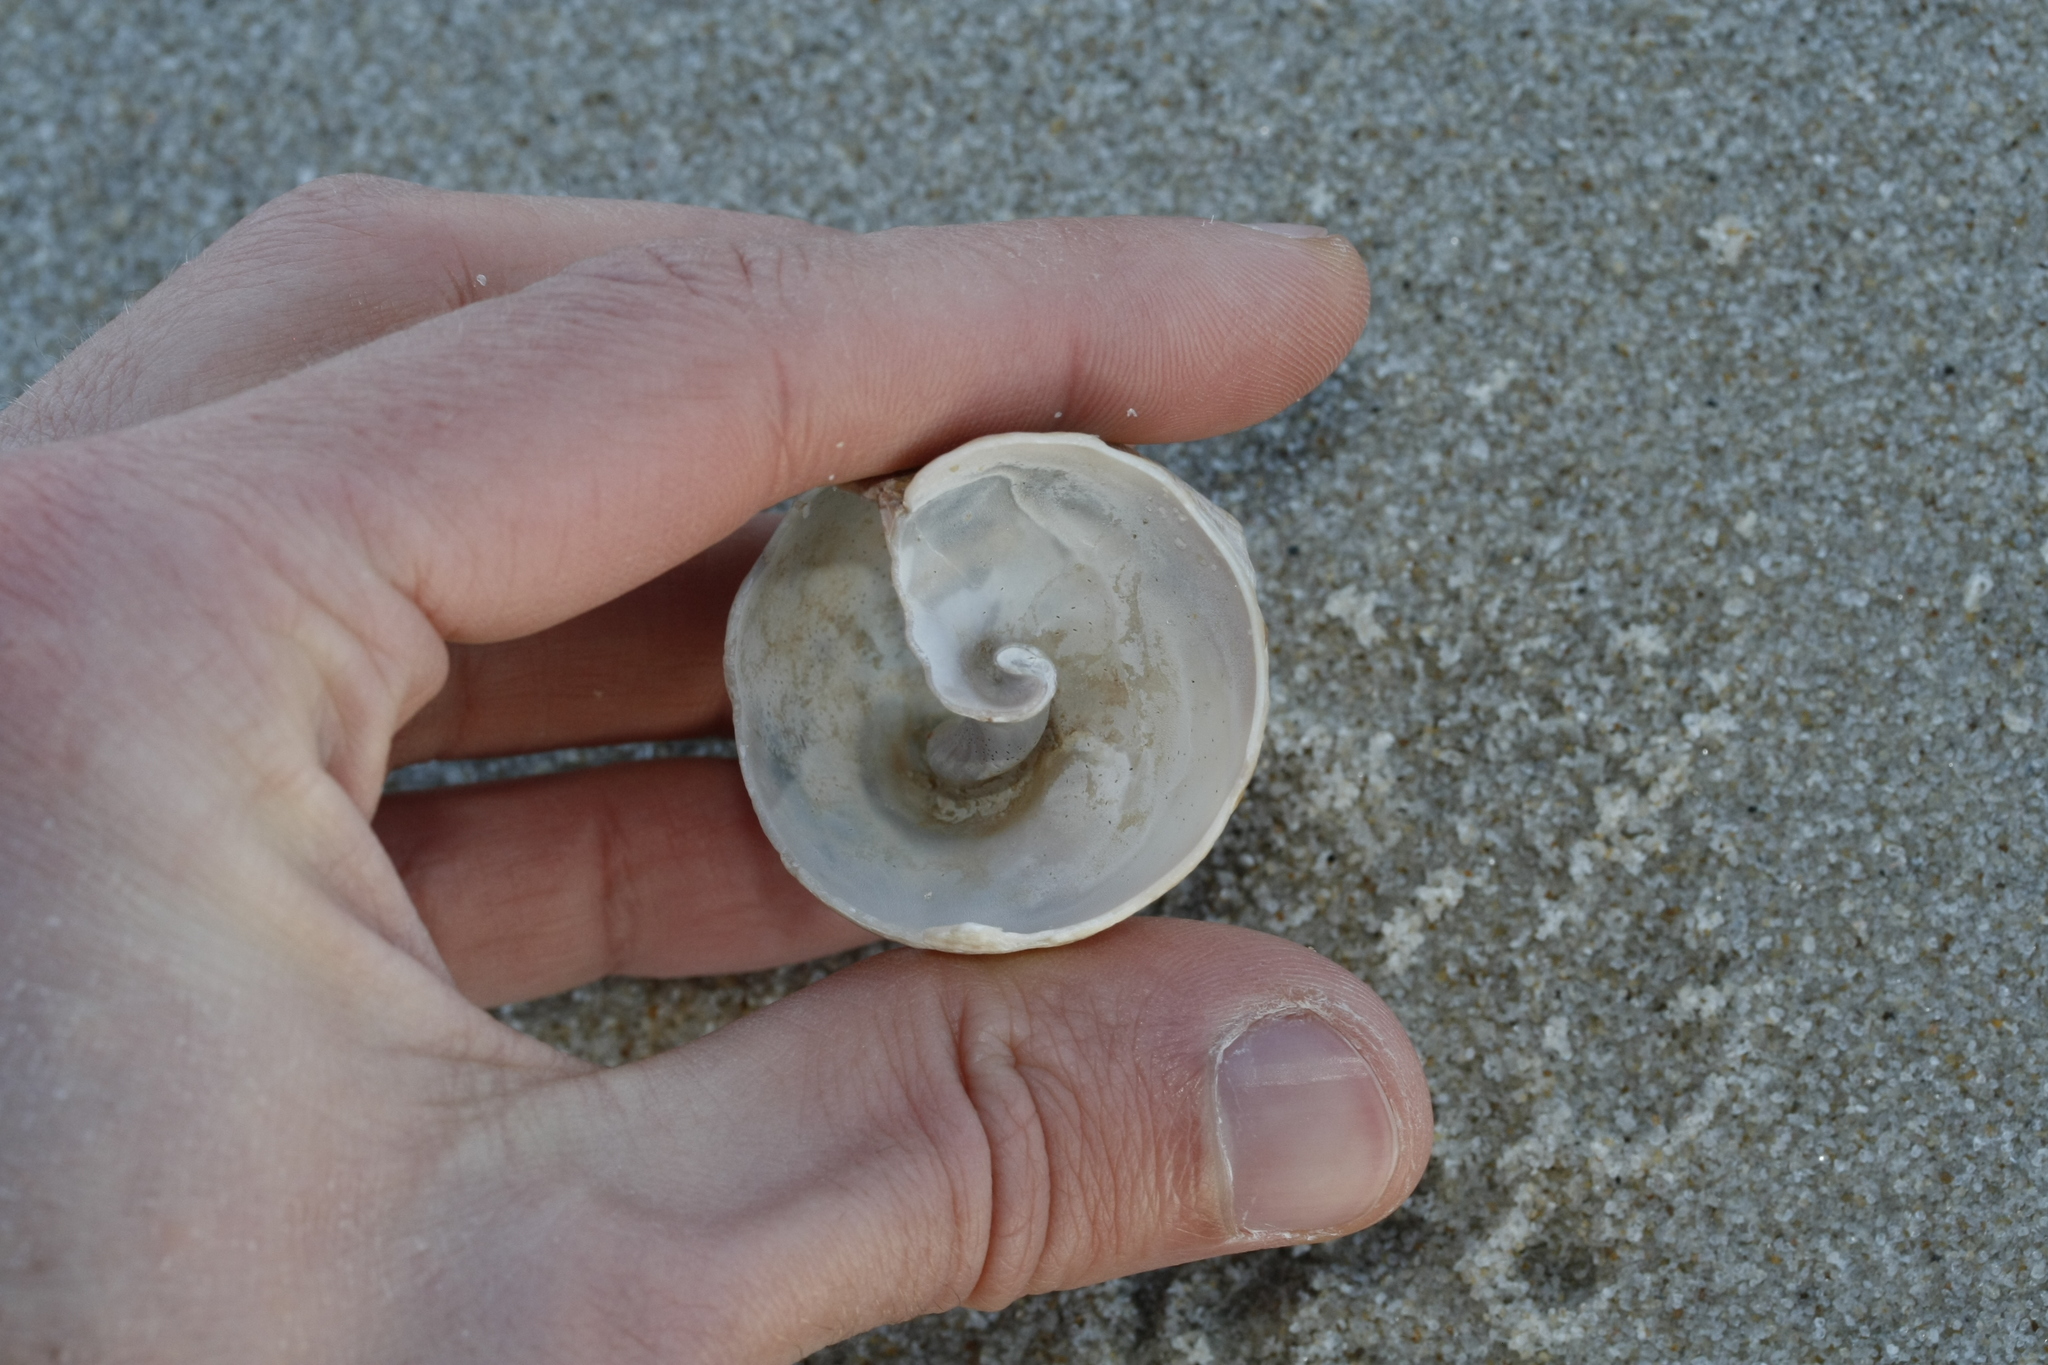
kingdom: Animalia
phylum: Mollusca
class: Gastropoda
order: Neogastropoda
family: Buccinidae
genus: Buccinum
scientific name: Buccinum undatum
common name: Common whelk
